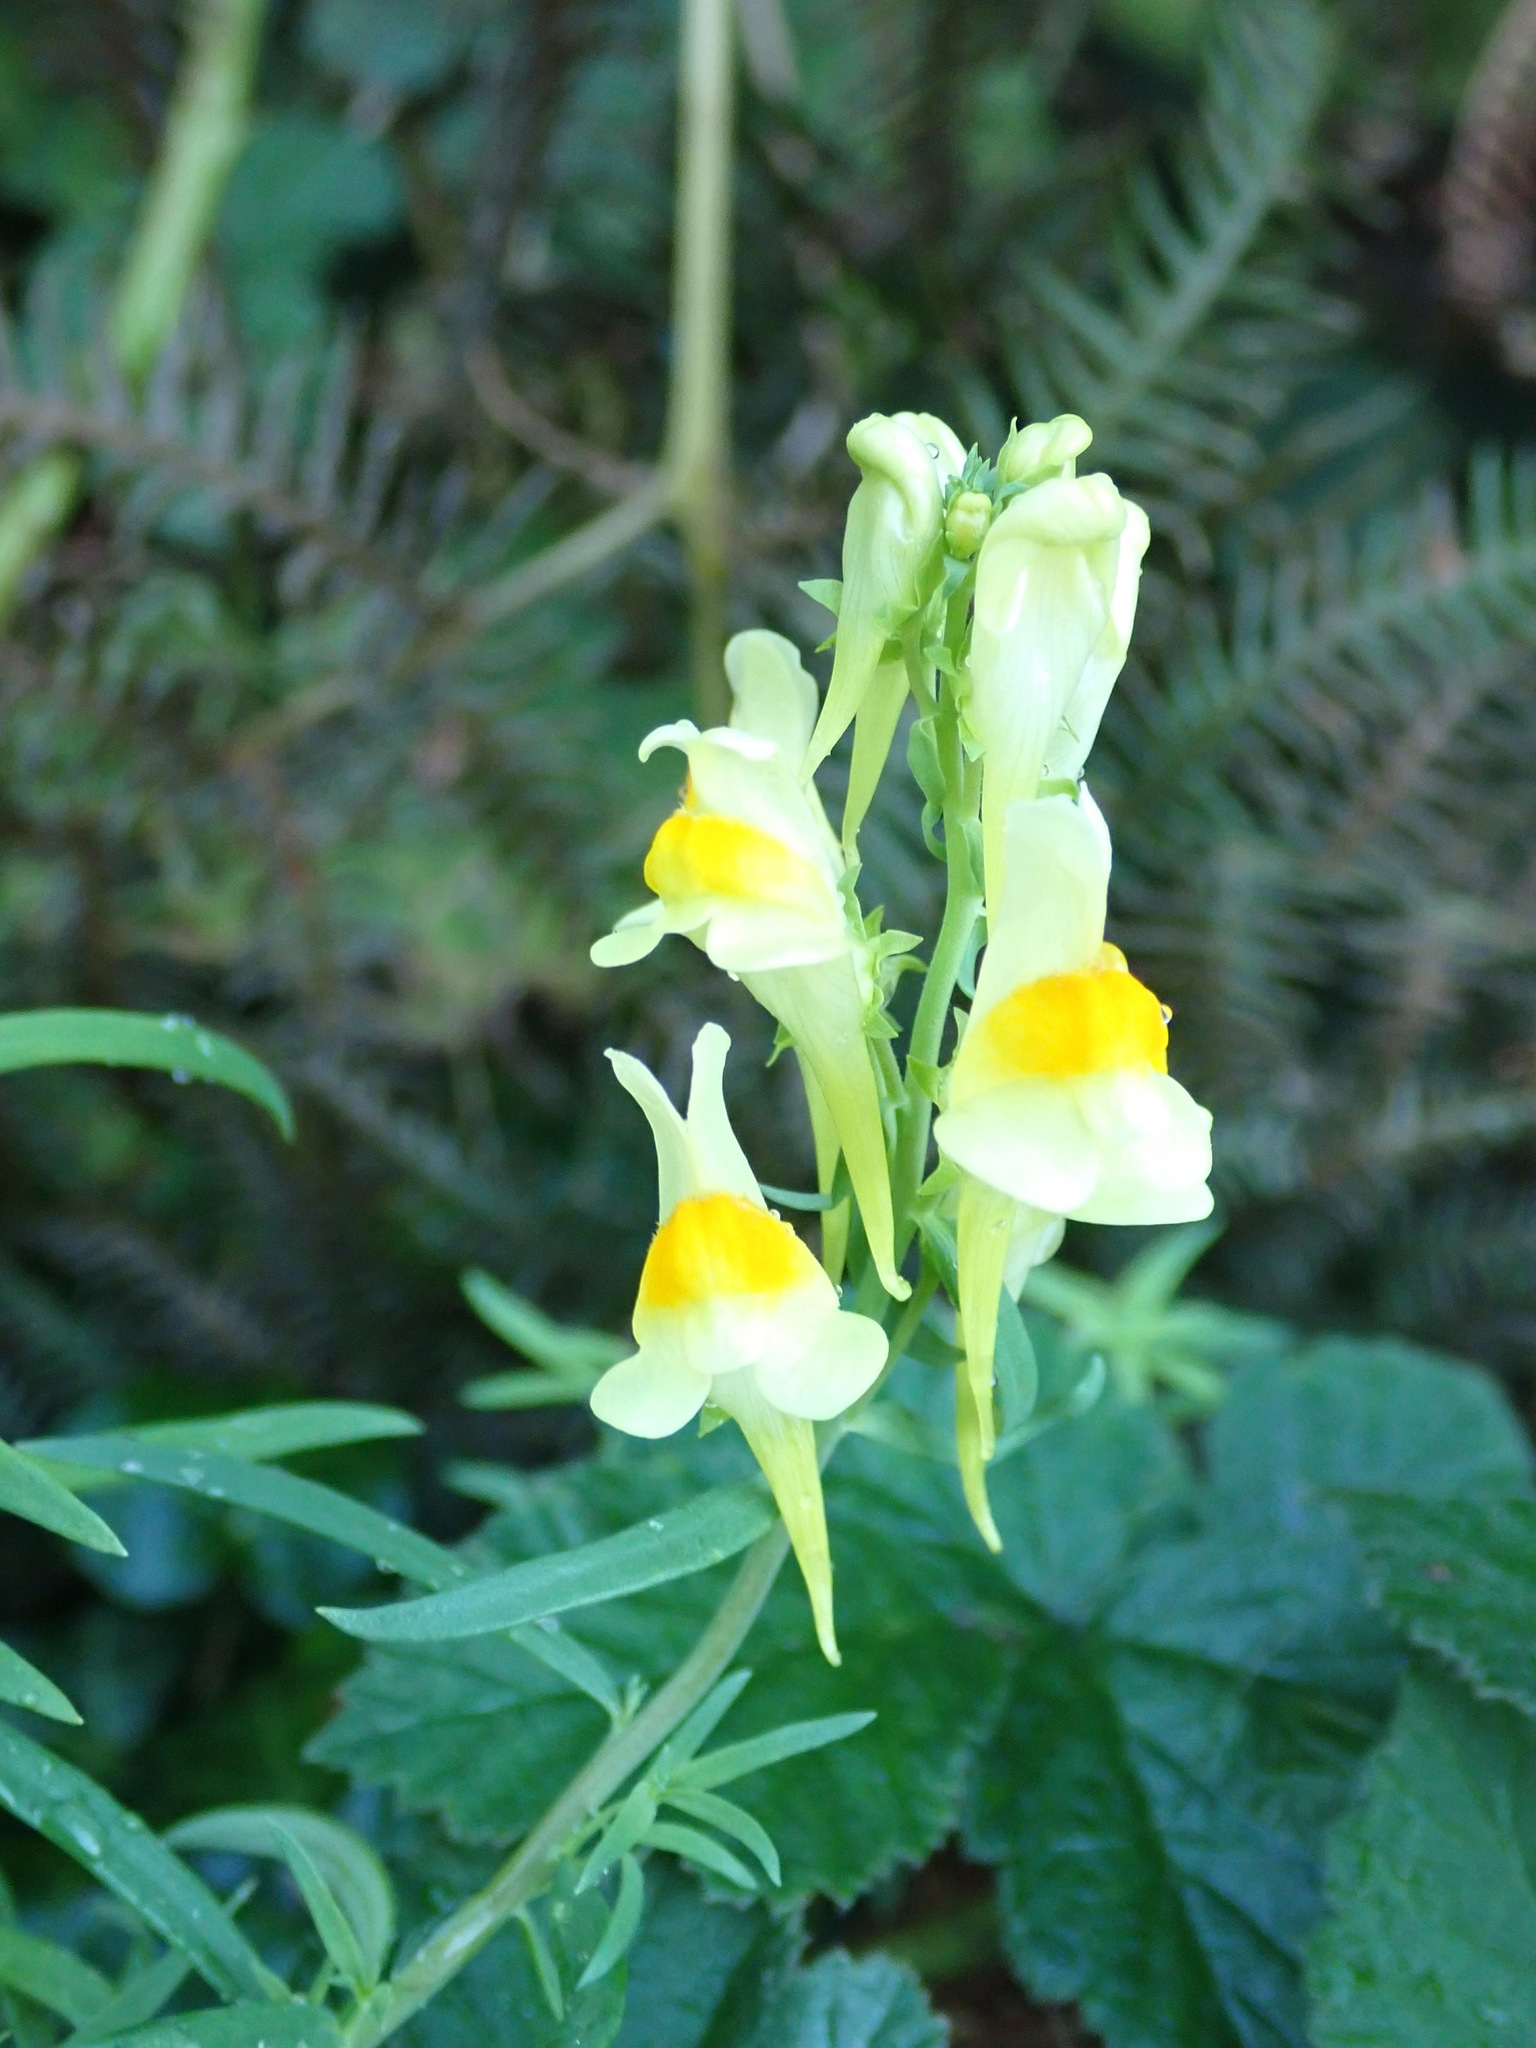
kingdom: Plantae
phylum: Tracheophyta
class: Magnoliopsida
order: Lamiales
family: Plantaginaceae
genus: Linaria
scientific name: Linaria vulgaris
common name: Butter and eggs
